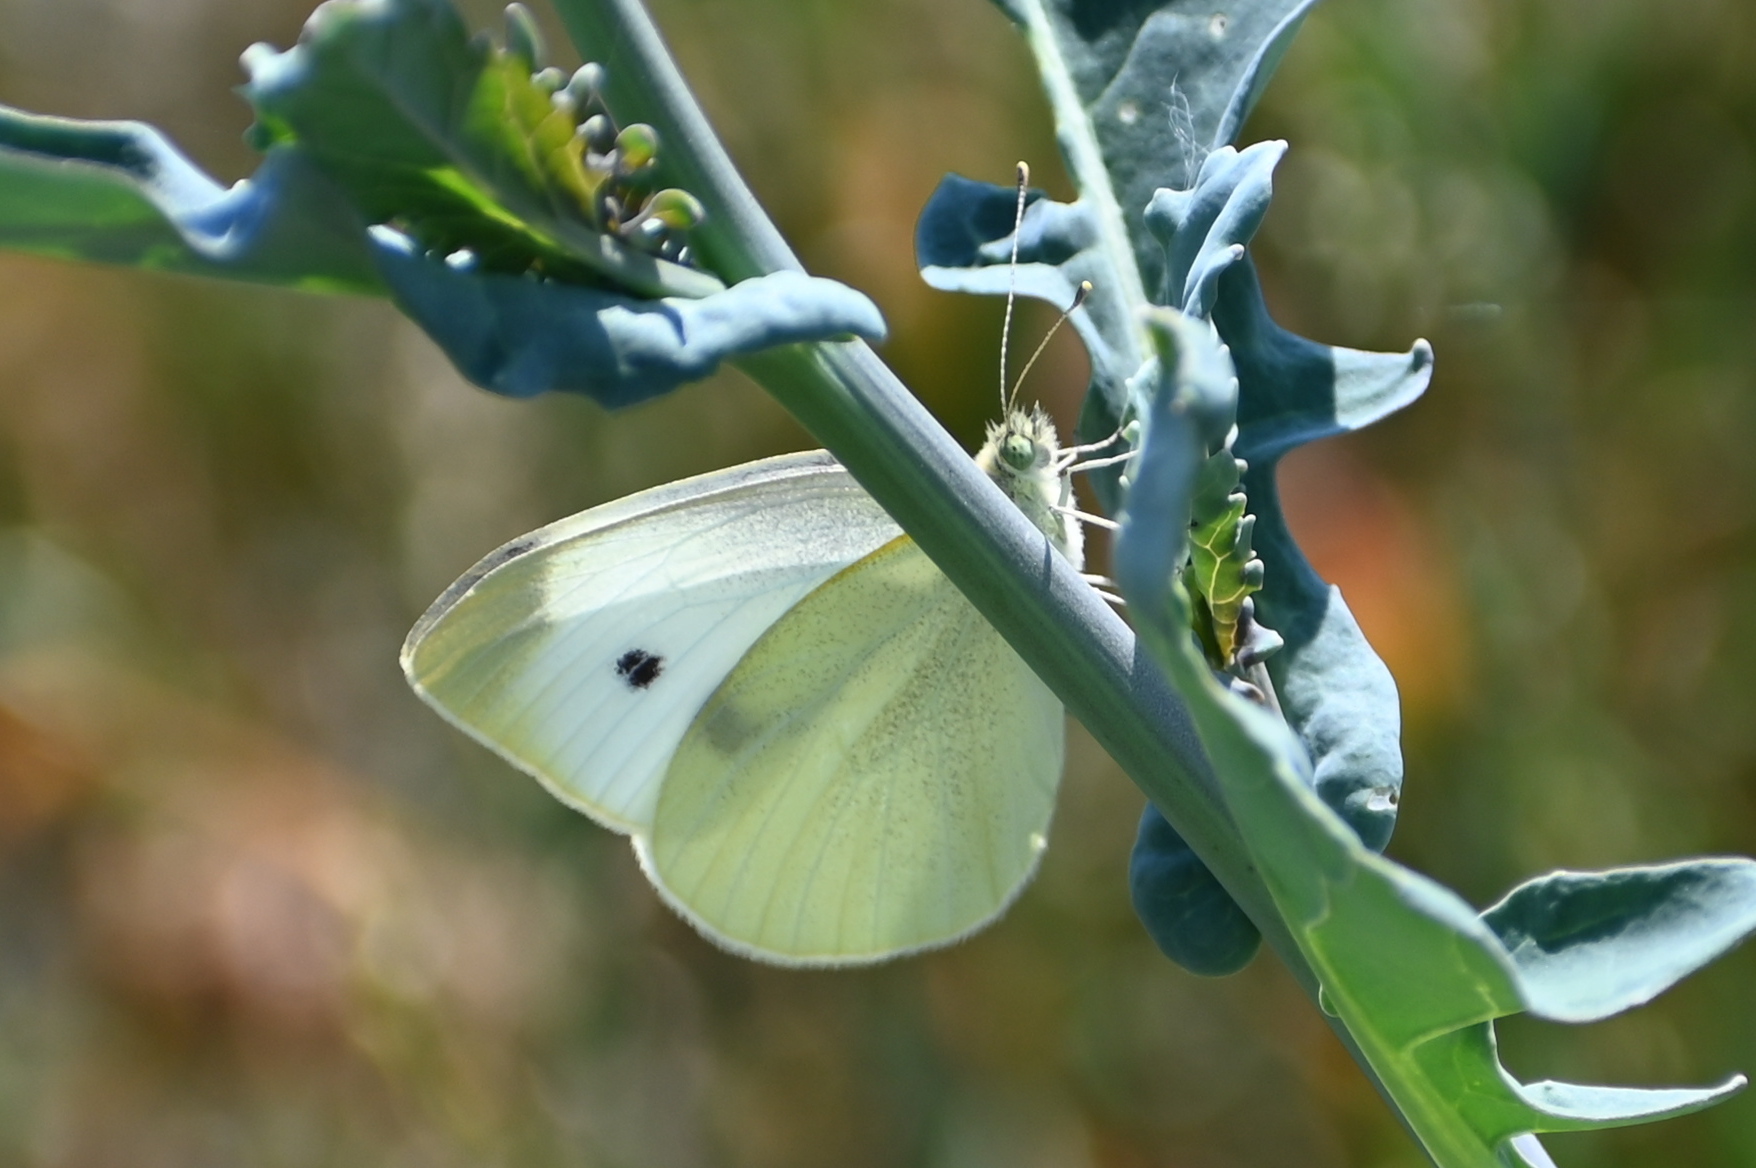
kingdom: Animalia
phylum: Arthropoda
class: Insecta
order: Lepidoptera
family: Pieridae
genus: Pieris
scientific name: Pieris rapae
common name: Small white
